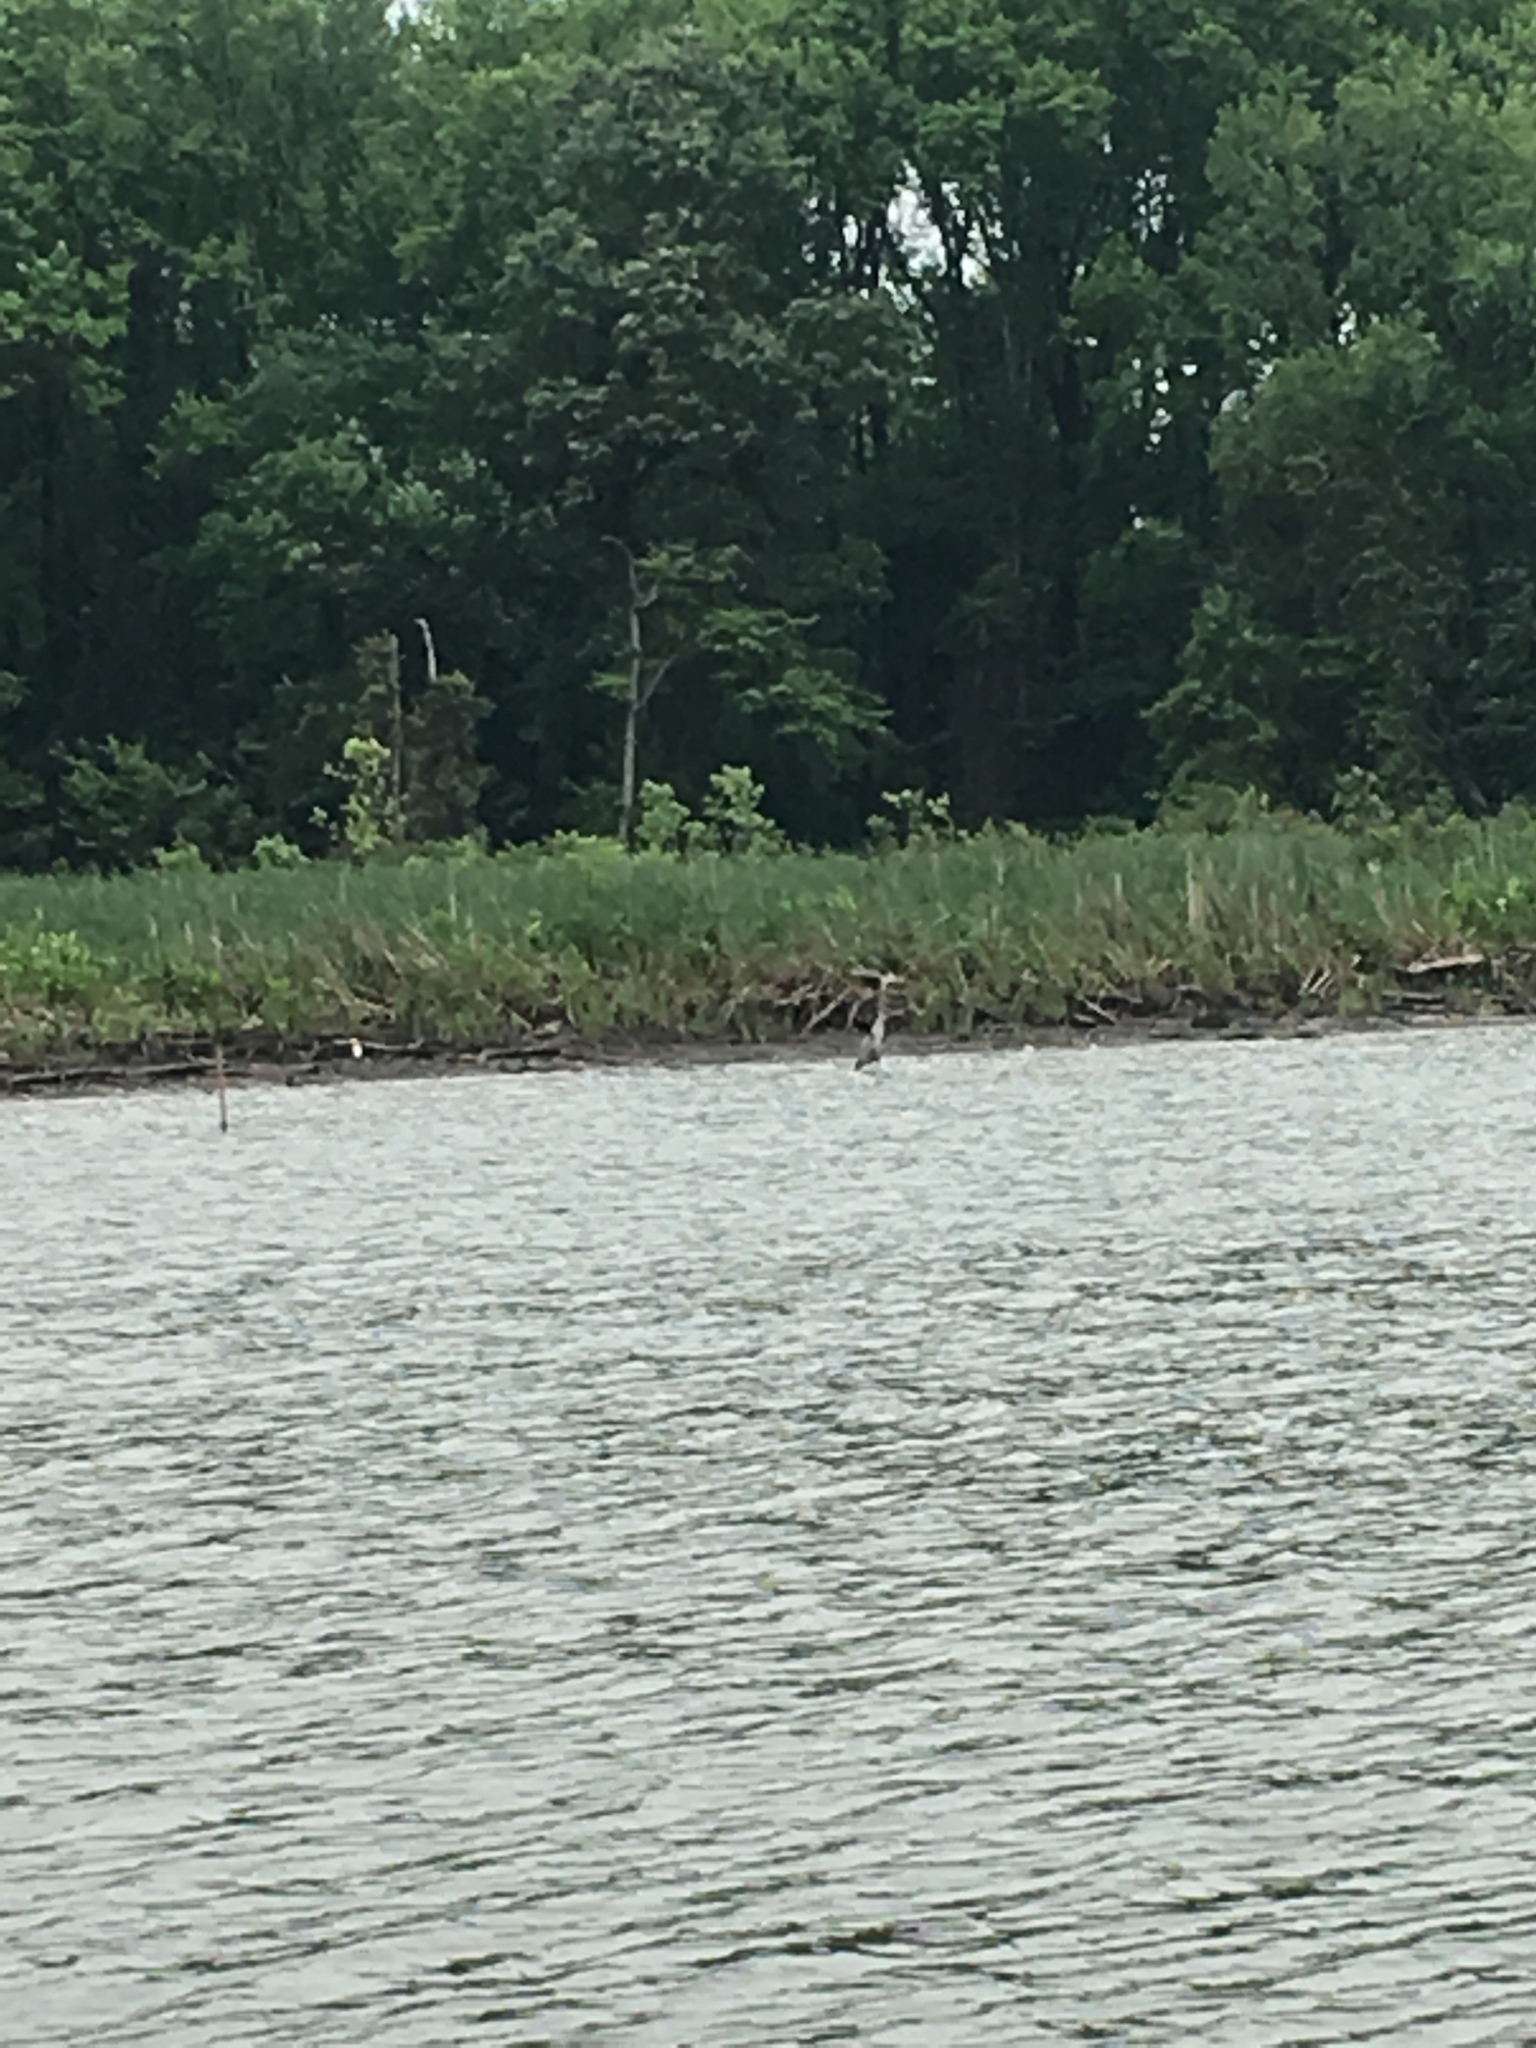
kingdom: Animalia
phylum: Chordata
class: Aves
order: Pelecaniformes
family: Ardeidae
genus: Ardea
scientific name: Ardea herodias
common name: Great blue heron
